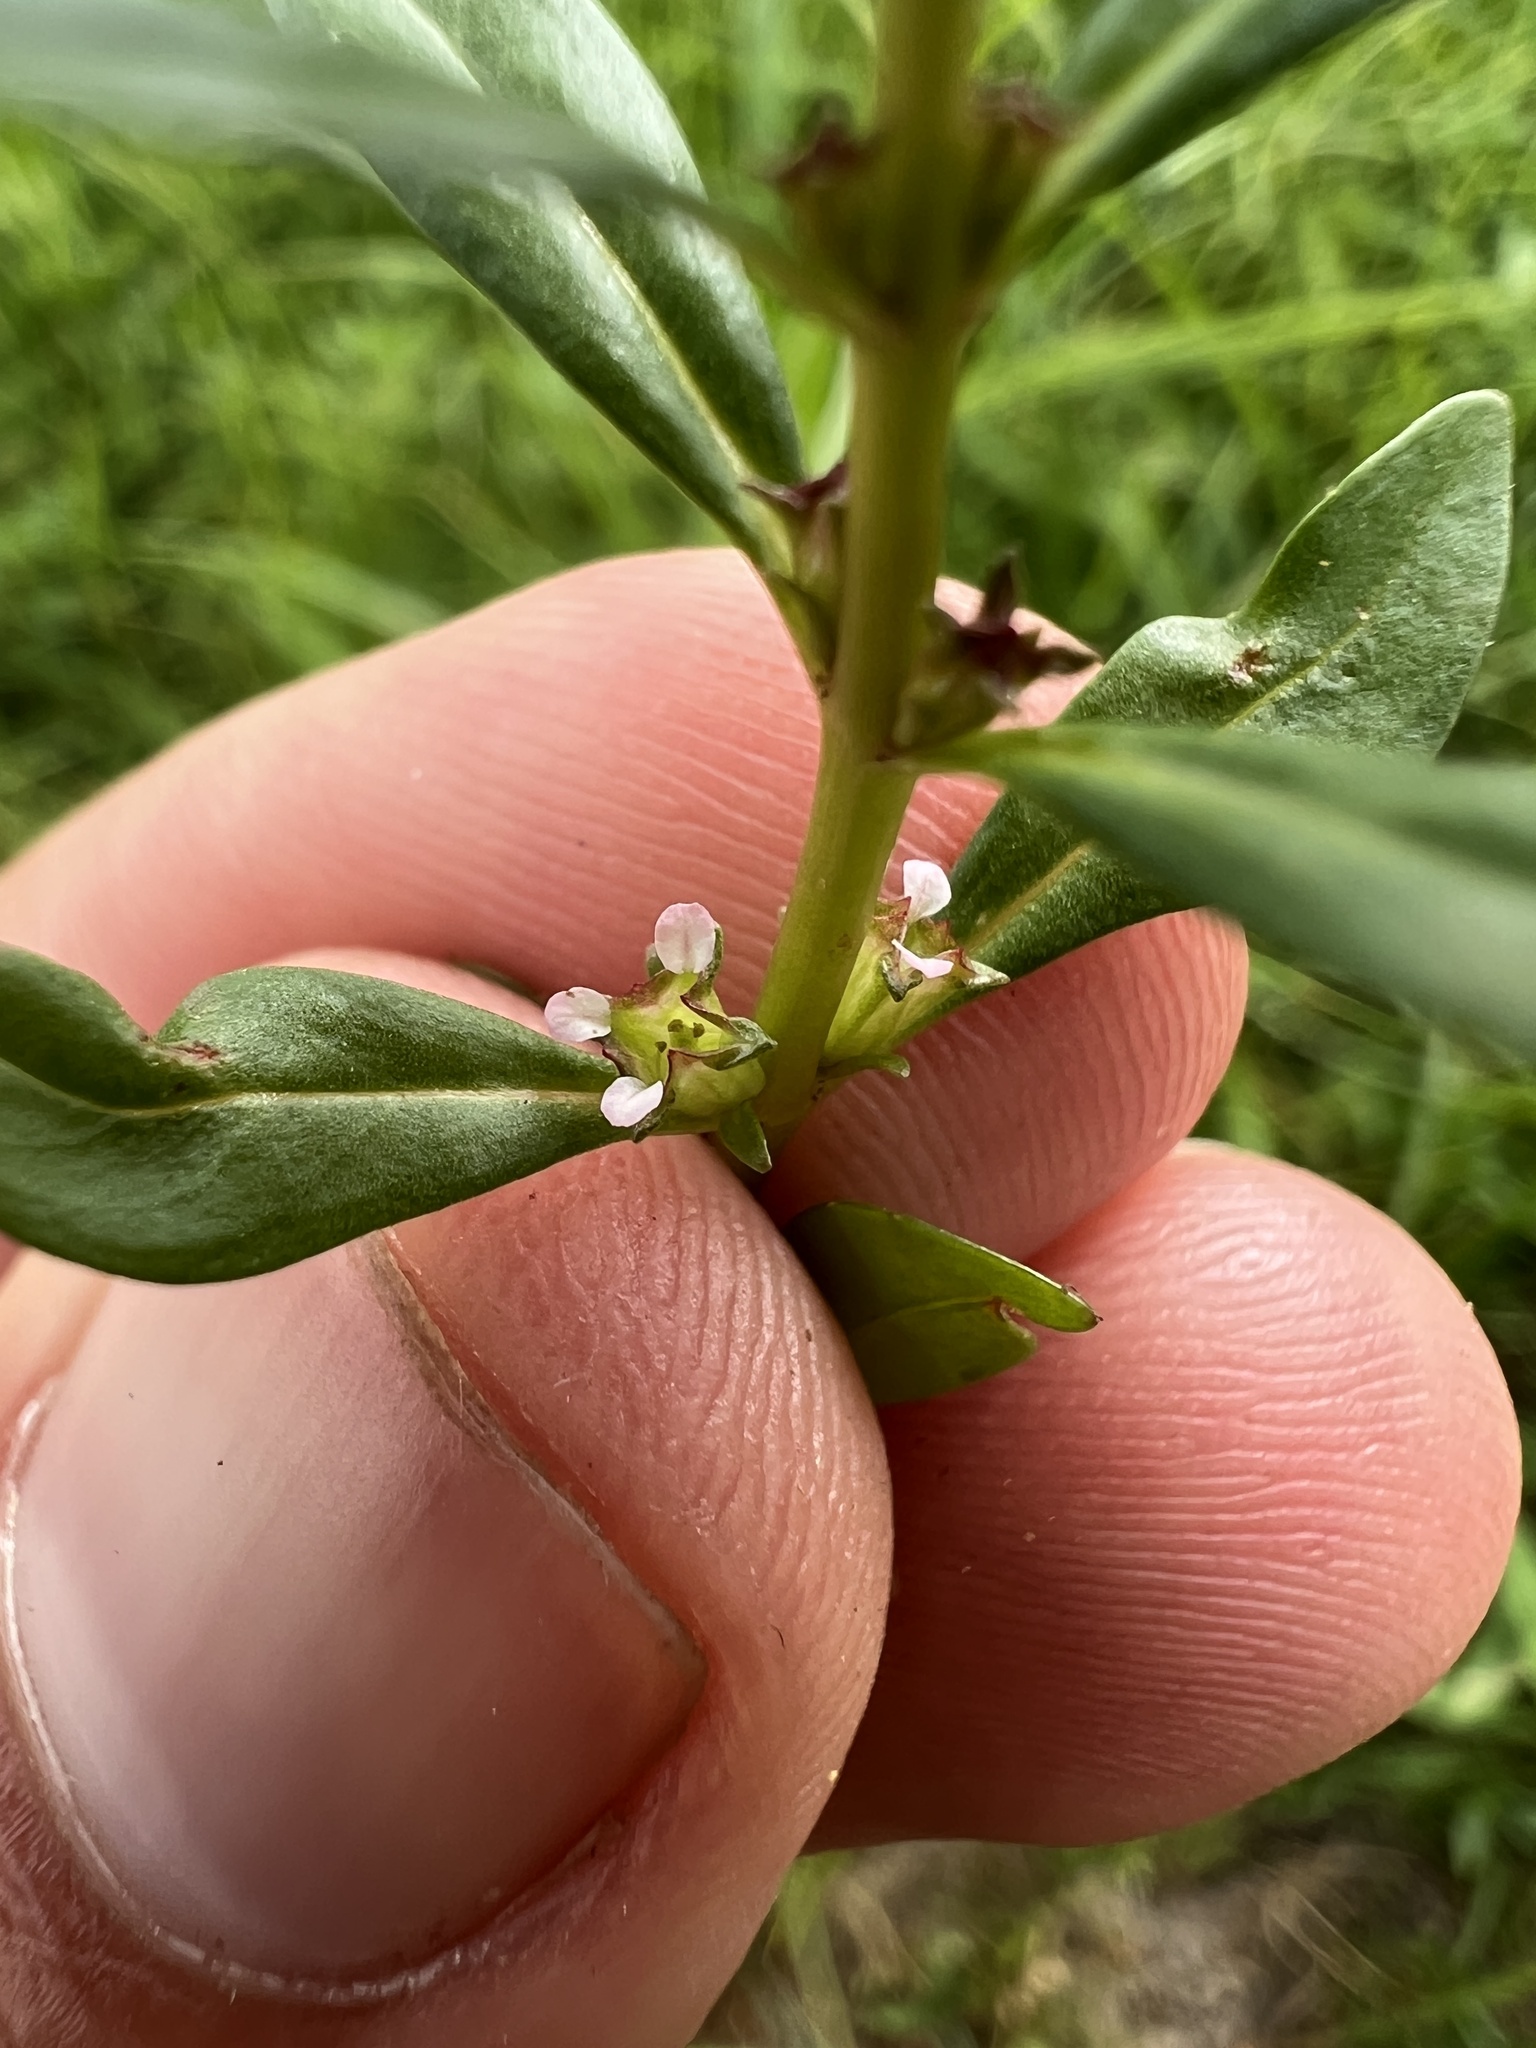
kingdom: Plantae
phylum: Tracheophyta
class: Magnoliopsida
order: Myrtales
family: Lythraceae
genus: Rotala
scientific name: Rotala ramosior
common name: Lowland rotala
